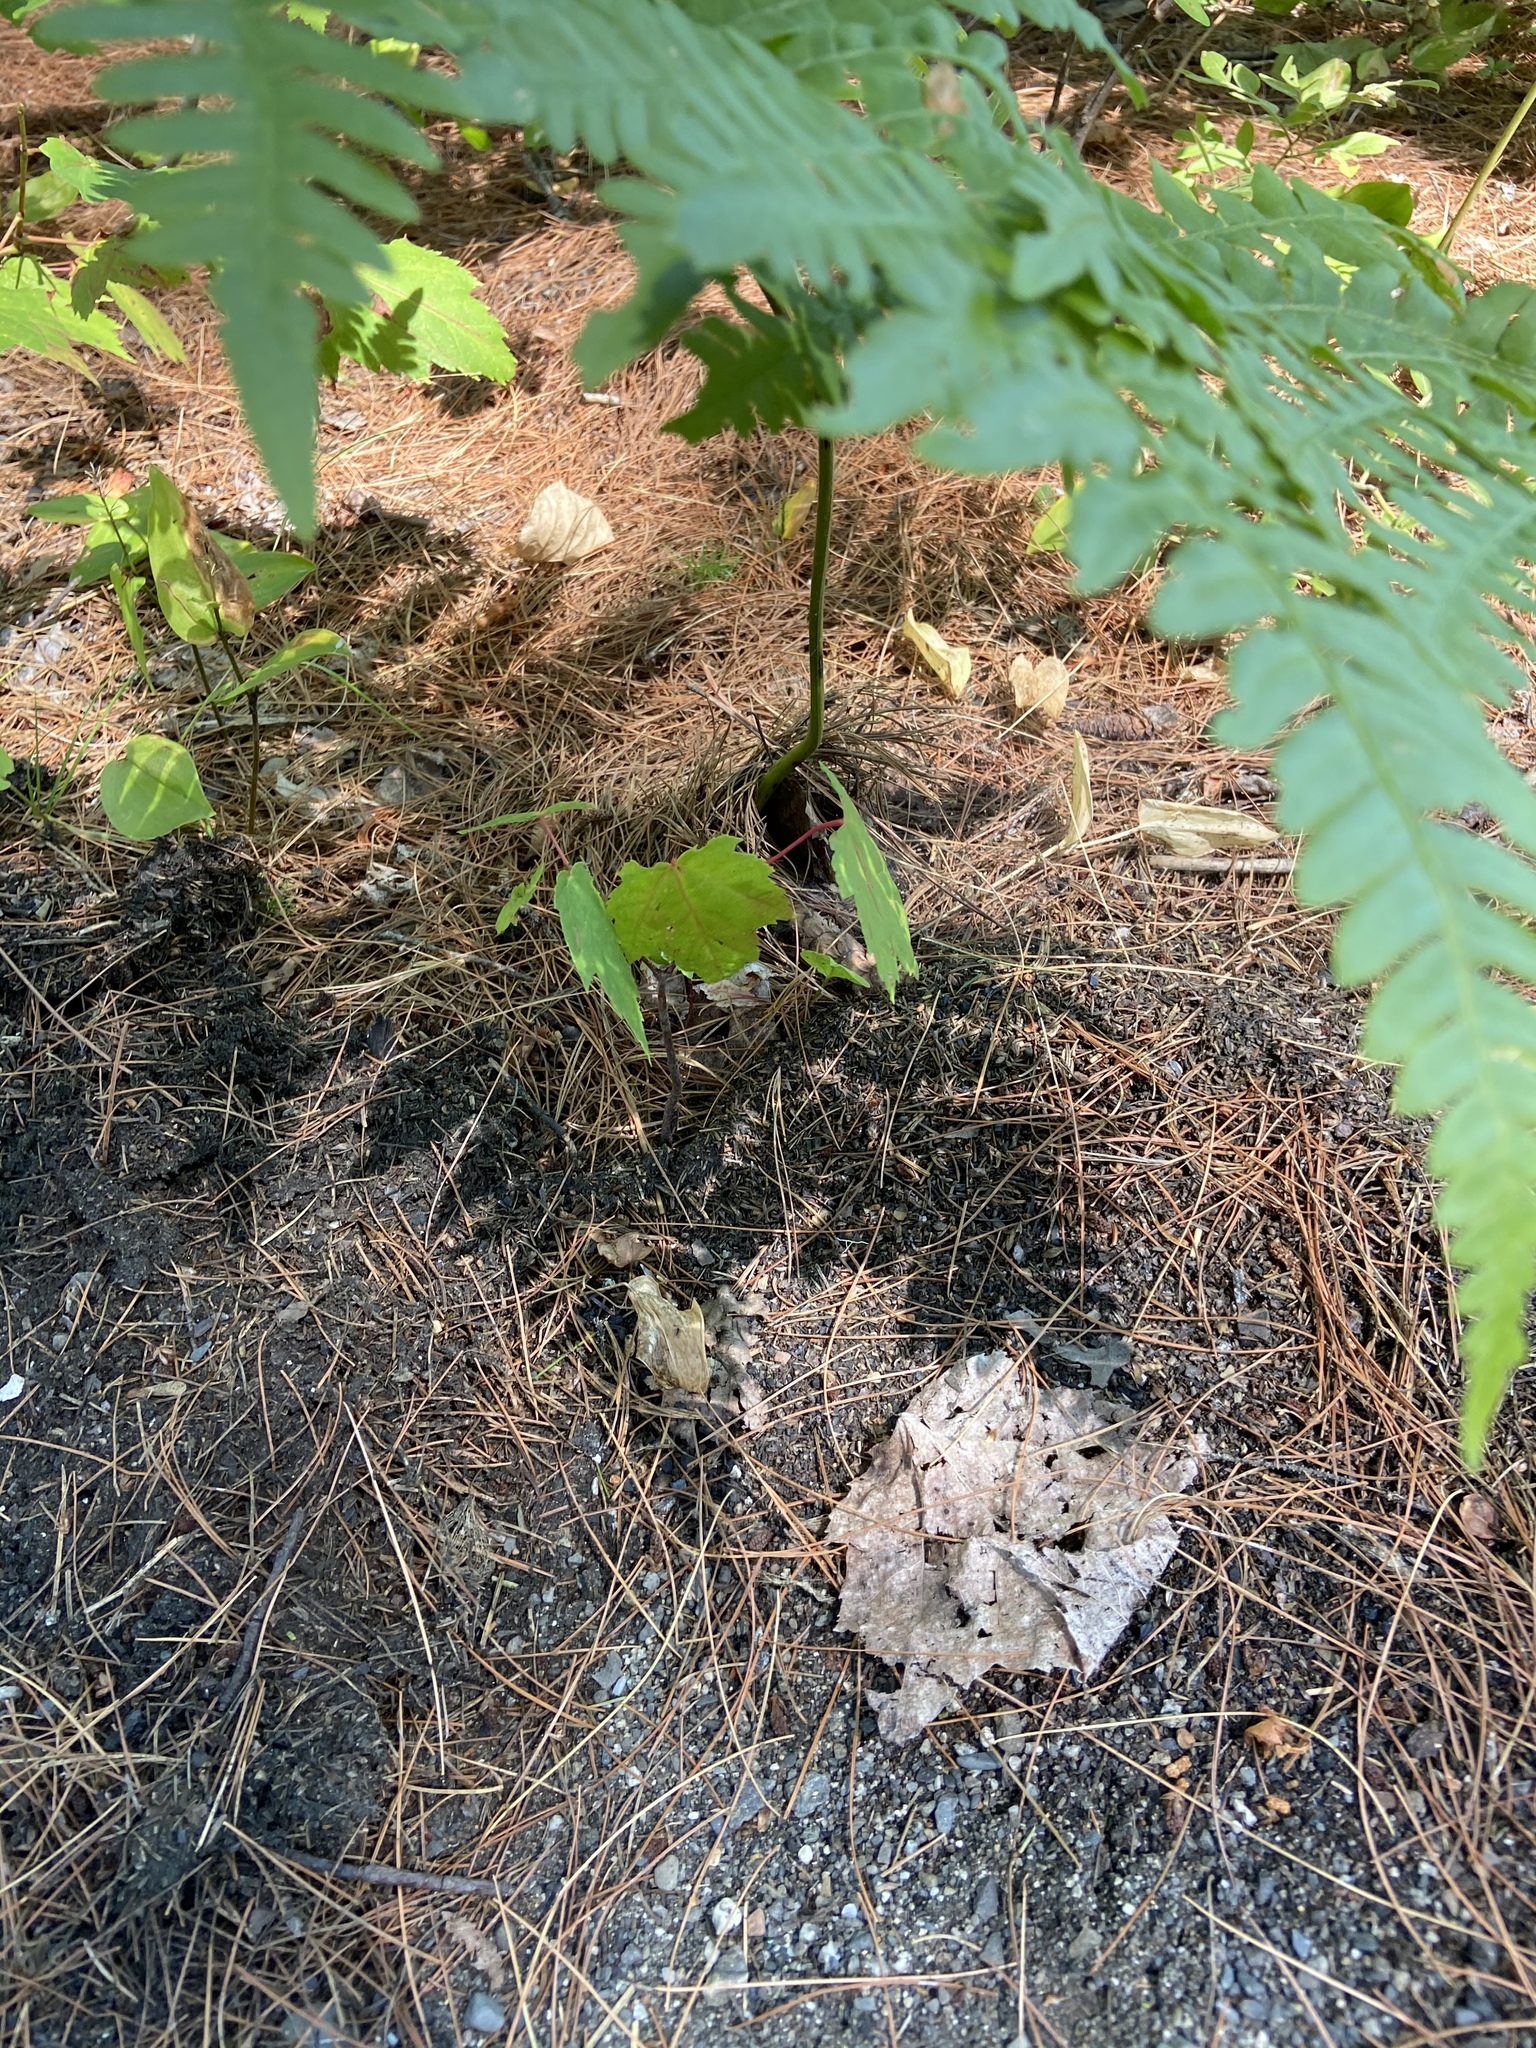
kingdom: Plantae
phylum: Tracheophyta
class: Polypodiopsida
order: Polypodiales
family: Dennstaedtiaceae
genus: Pteridium
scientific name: Pteridium aquilinum
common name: Bracken
